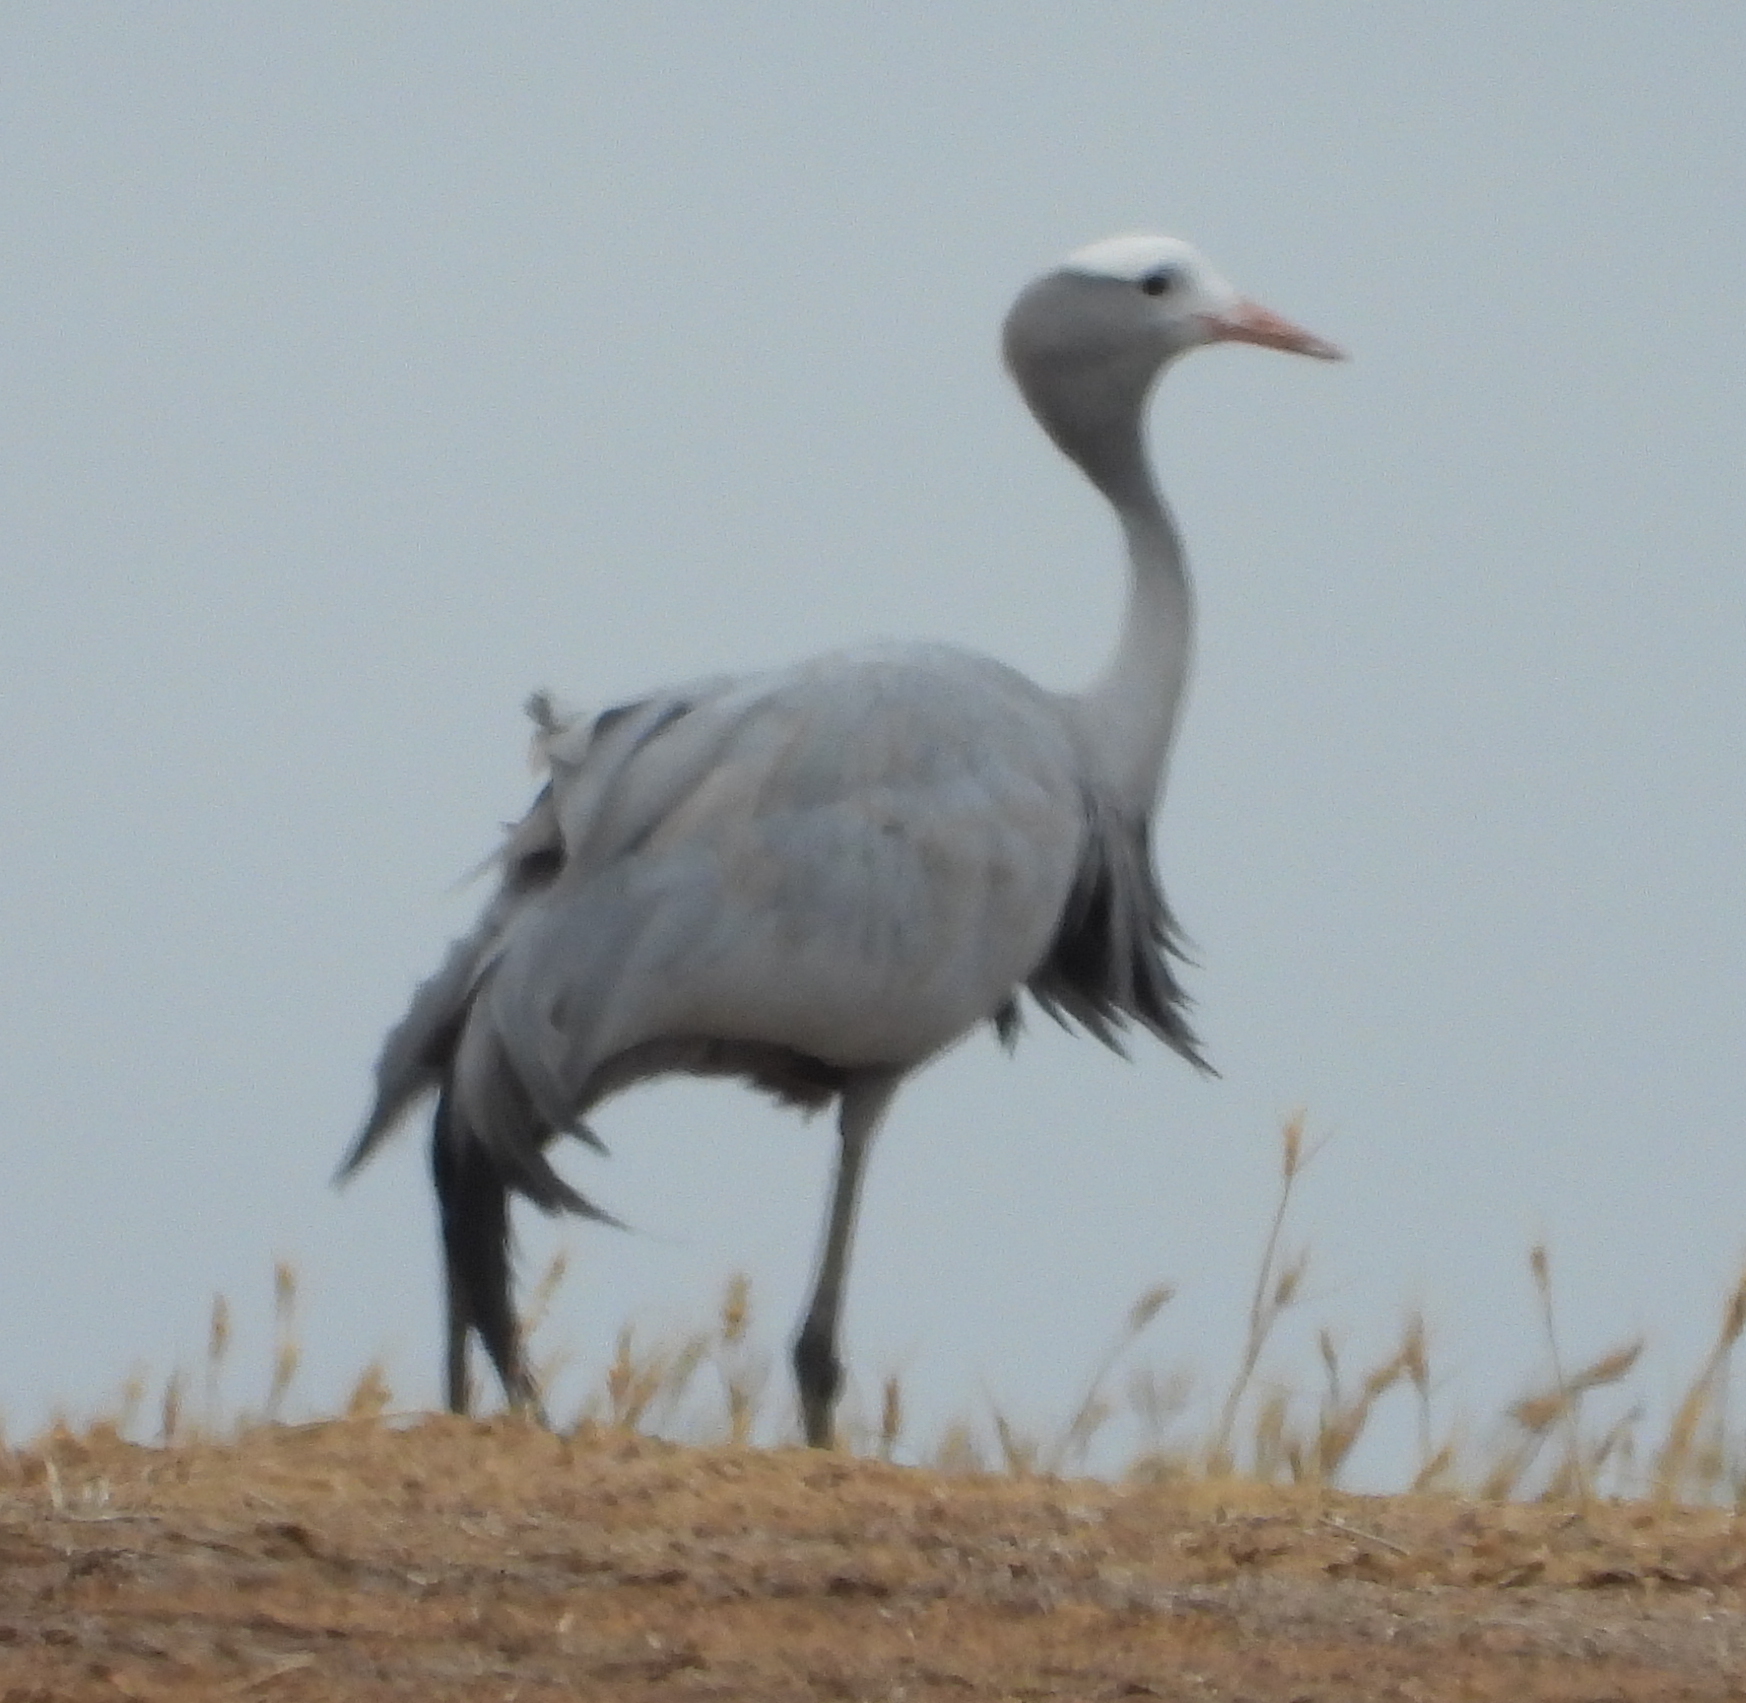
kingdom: Animalia
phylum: Chordata
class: Aves
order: Gruiformes
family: Gruidae
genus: Anthropoides
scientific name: Anthropoides paradiseus
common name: Blue crane
